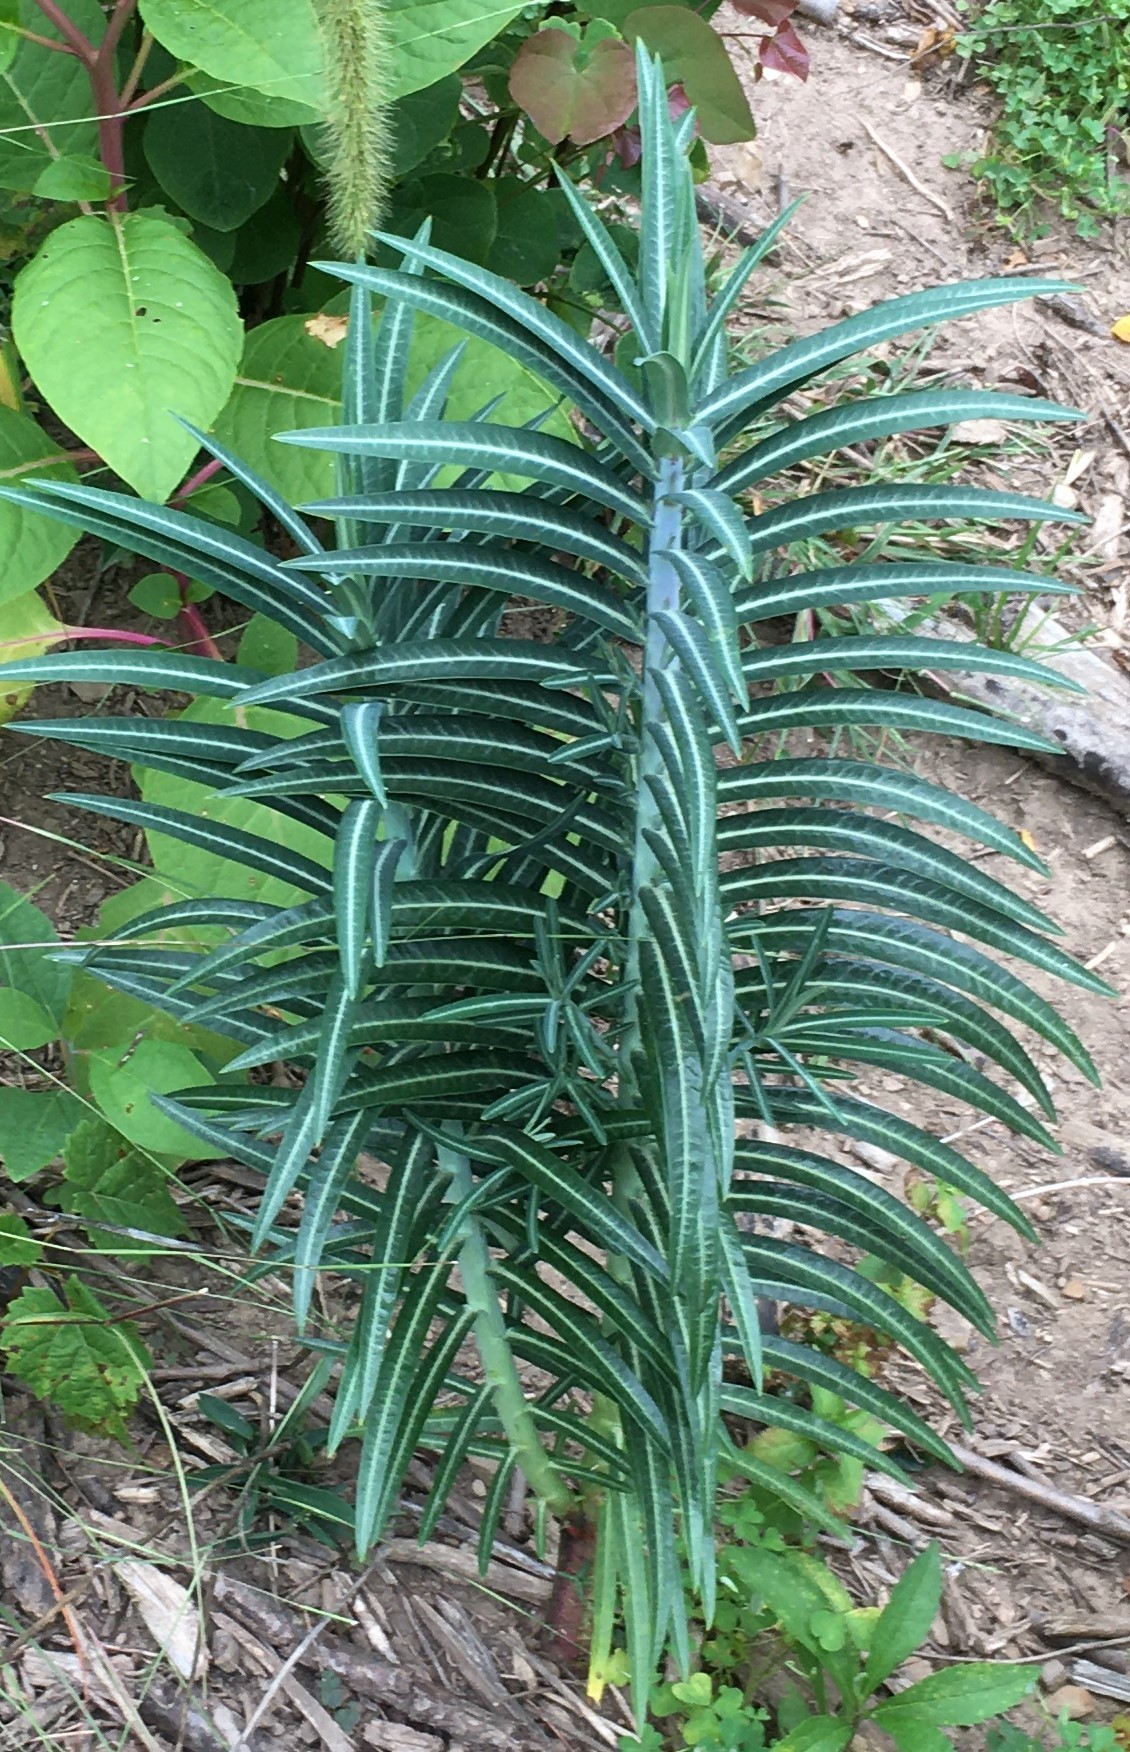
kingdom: Plantae
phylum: Tracheophyta
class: Magnoliopsida
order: Malpighiales
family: Euphorbiaceae
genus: Euphorbia
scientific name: Euphorbia lathyris
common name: Caper spurge
